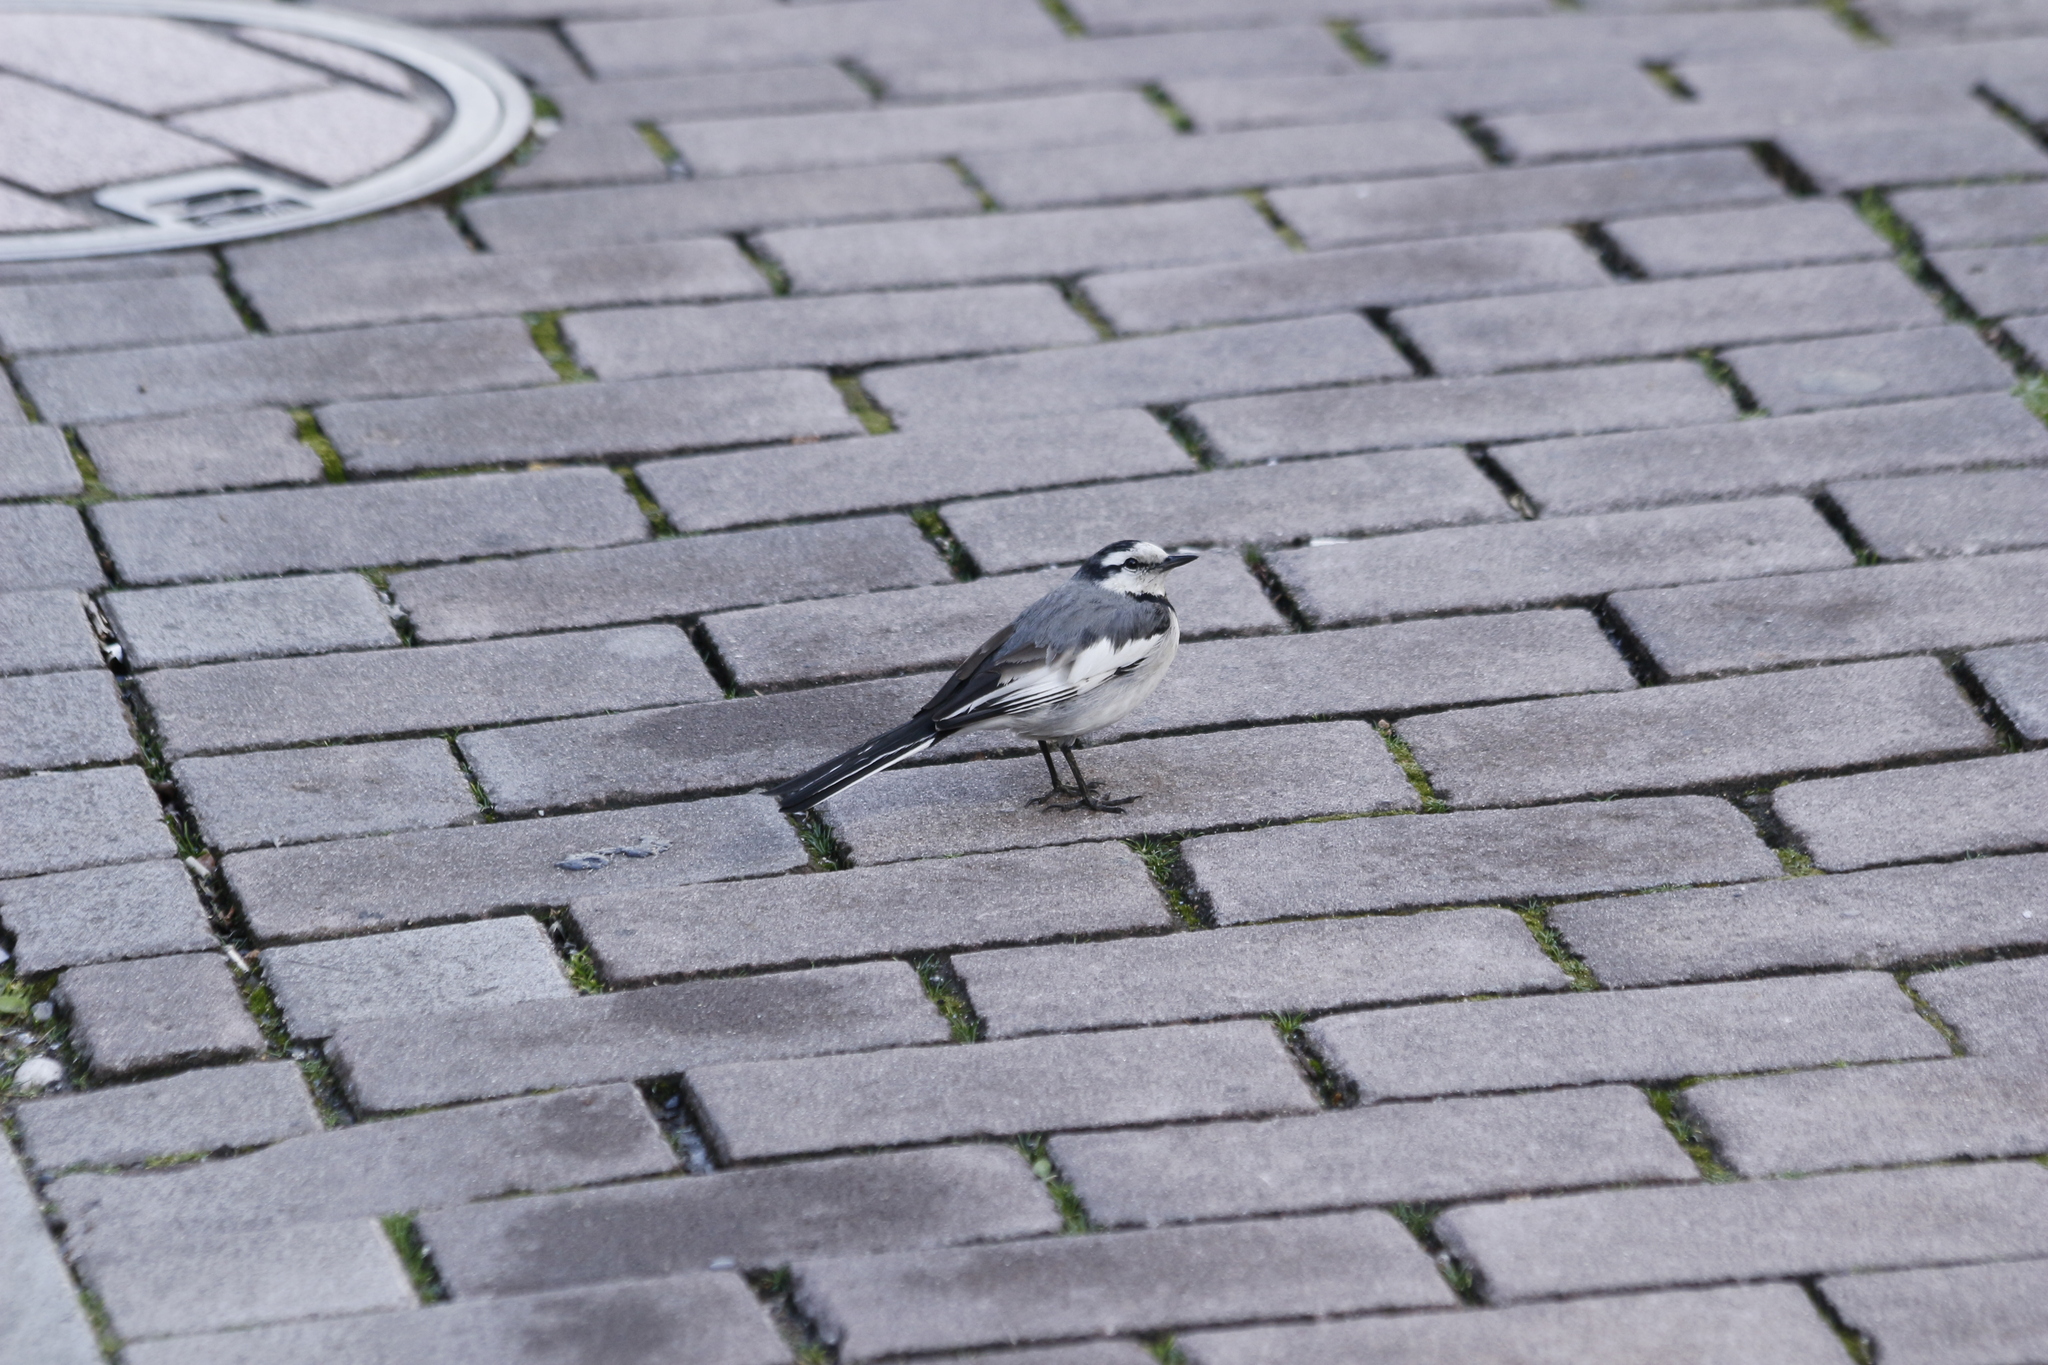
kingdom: Animalia
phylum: Chordata
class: Aves
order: Passeriformes
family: Motacillidae
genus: Motacilla
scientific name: Motacilla alba
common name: White wagtail
